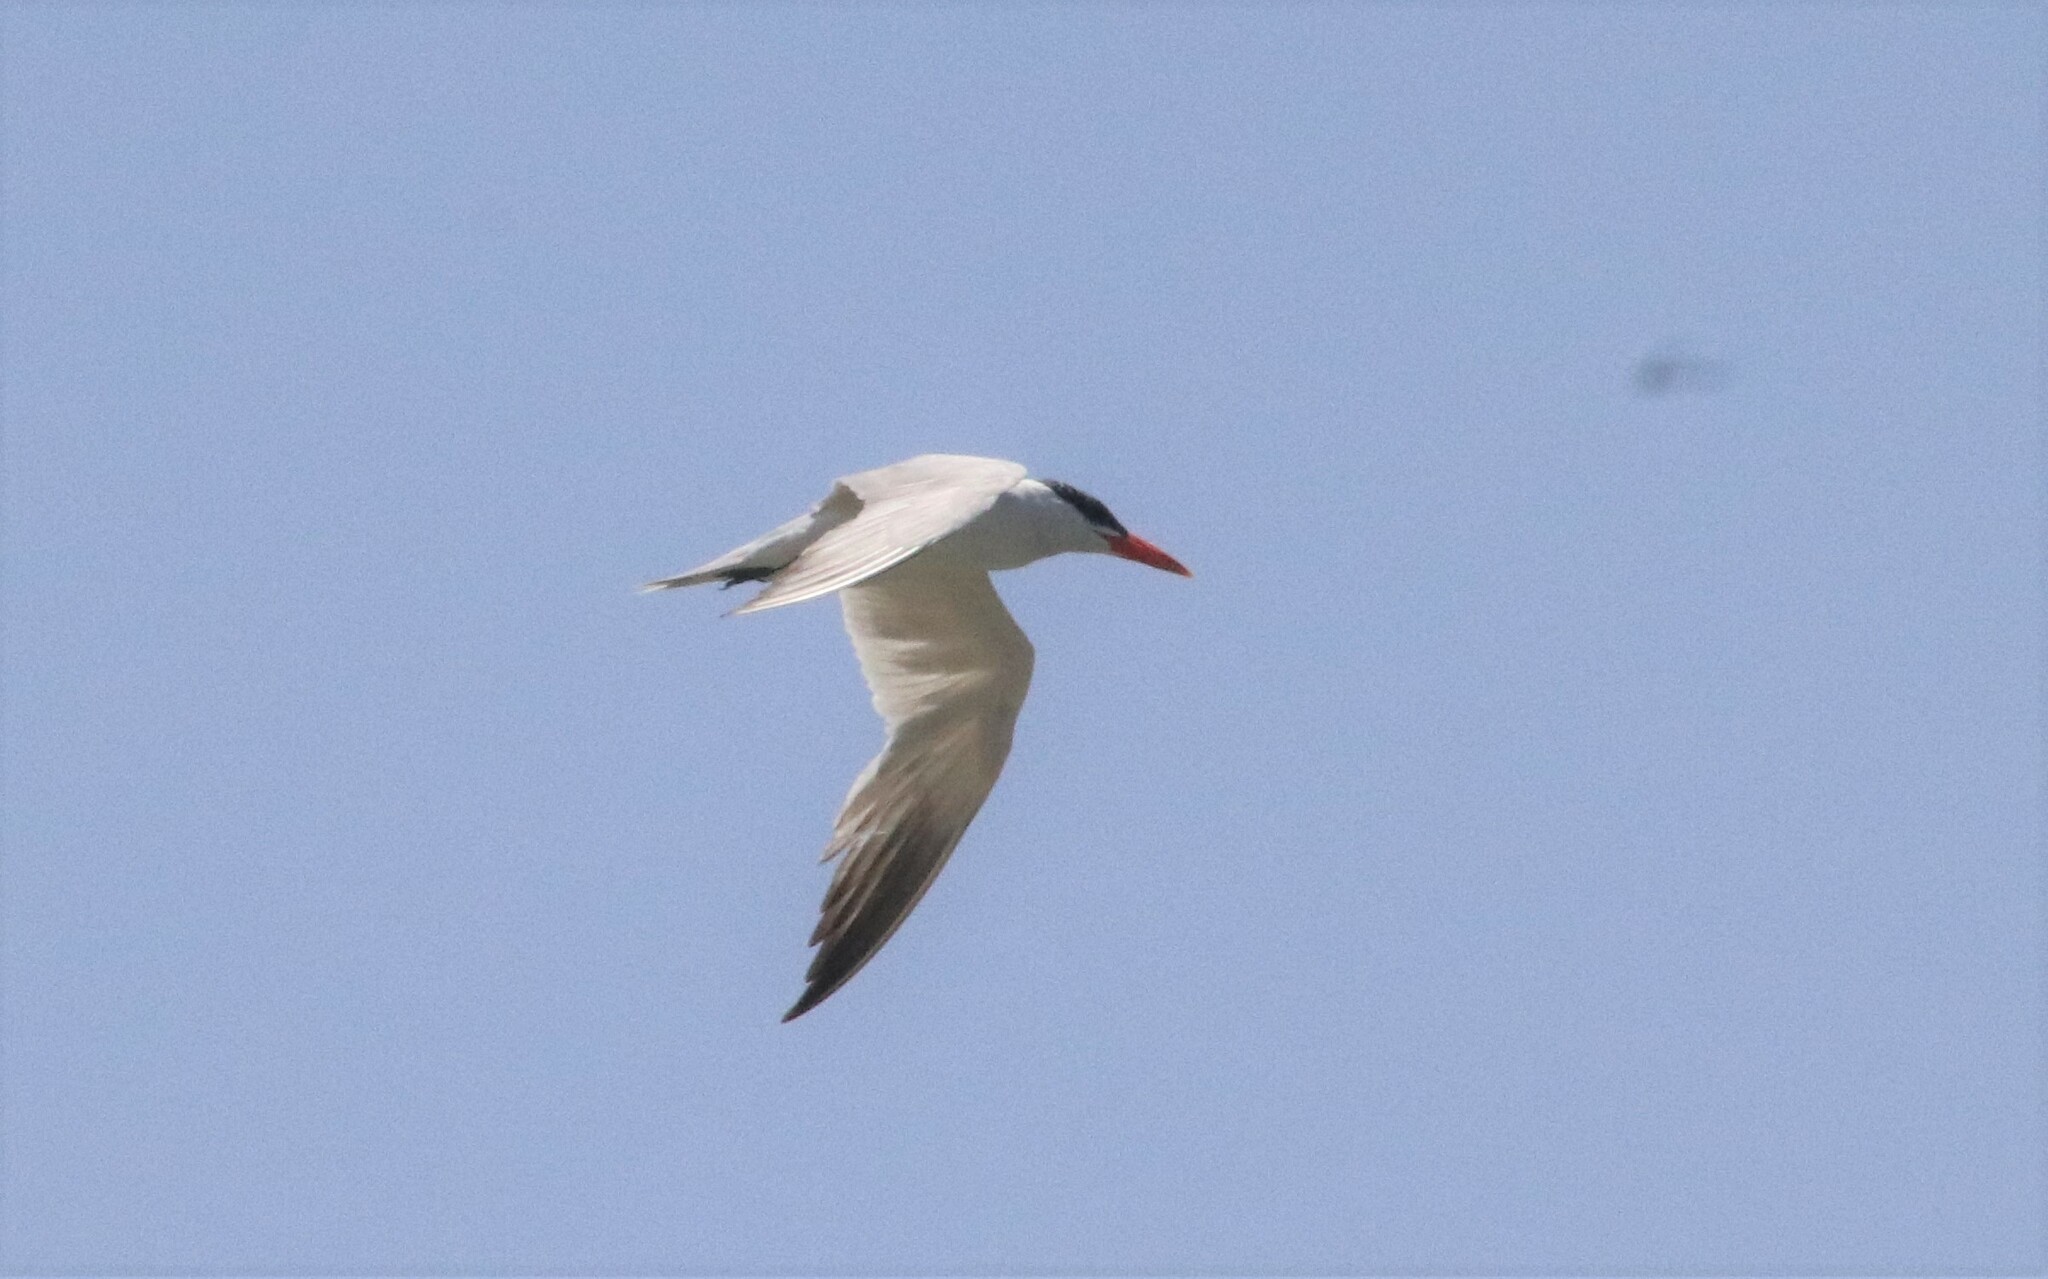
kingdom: Animalia
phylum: Chordata
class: Aves
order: Charadriiformes
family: Laridae
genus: Hydroprogne
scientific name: Hydroprogne caspia
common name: Caspian tern
